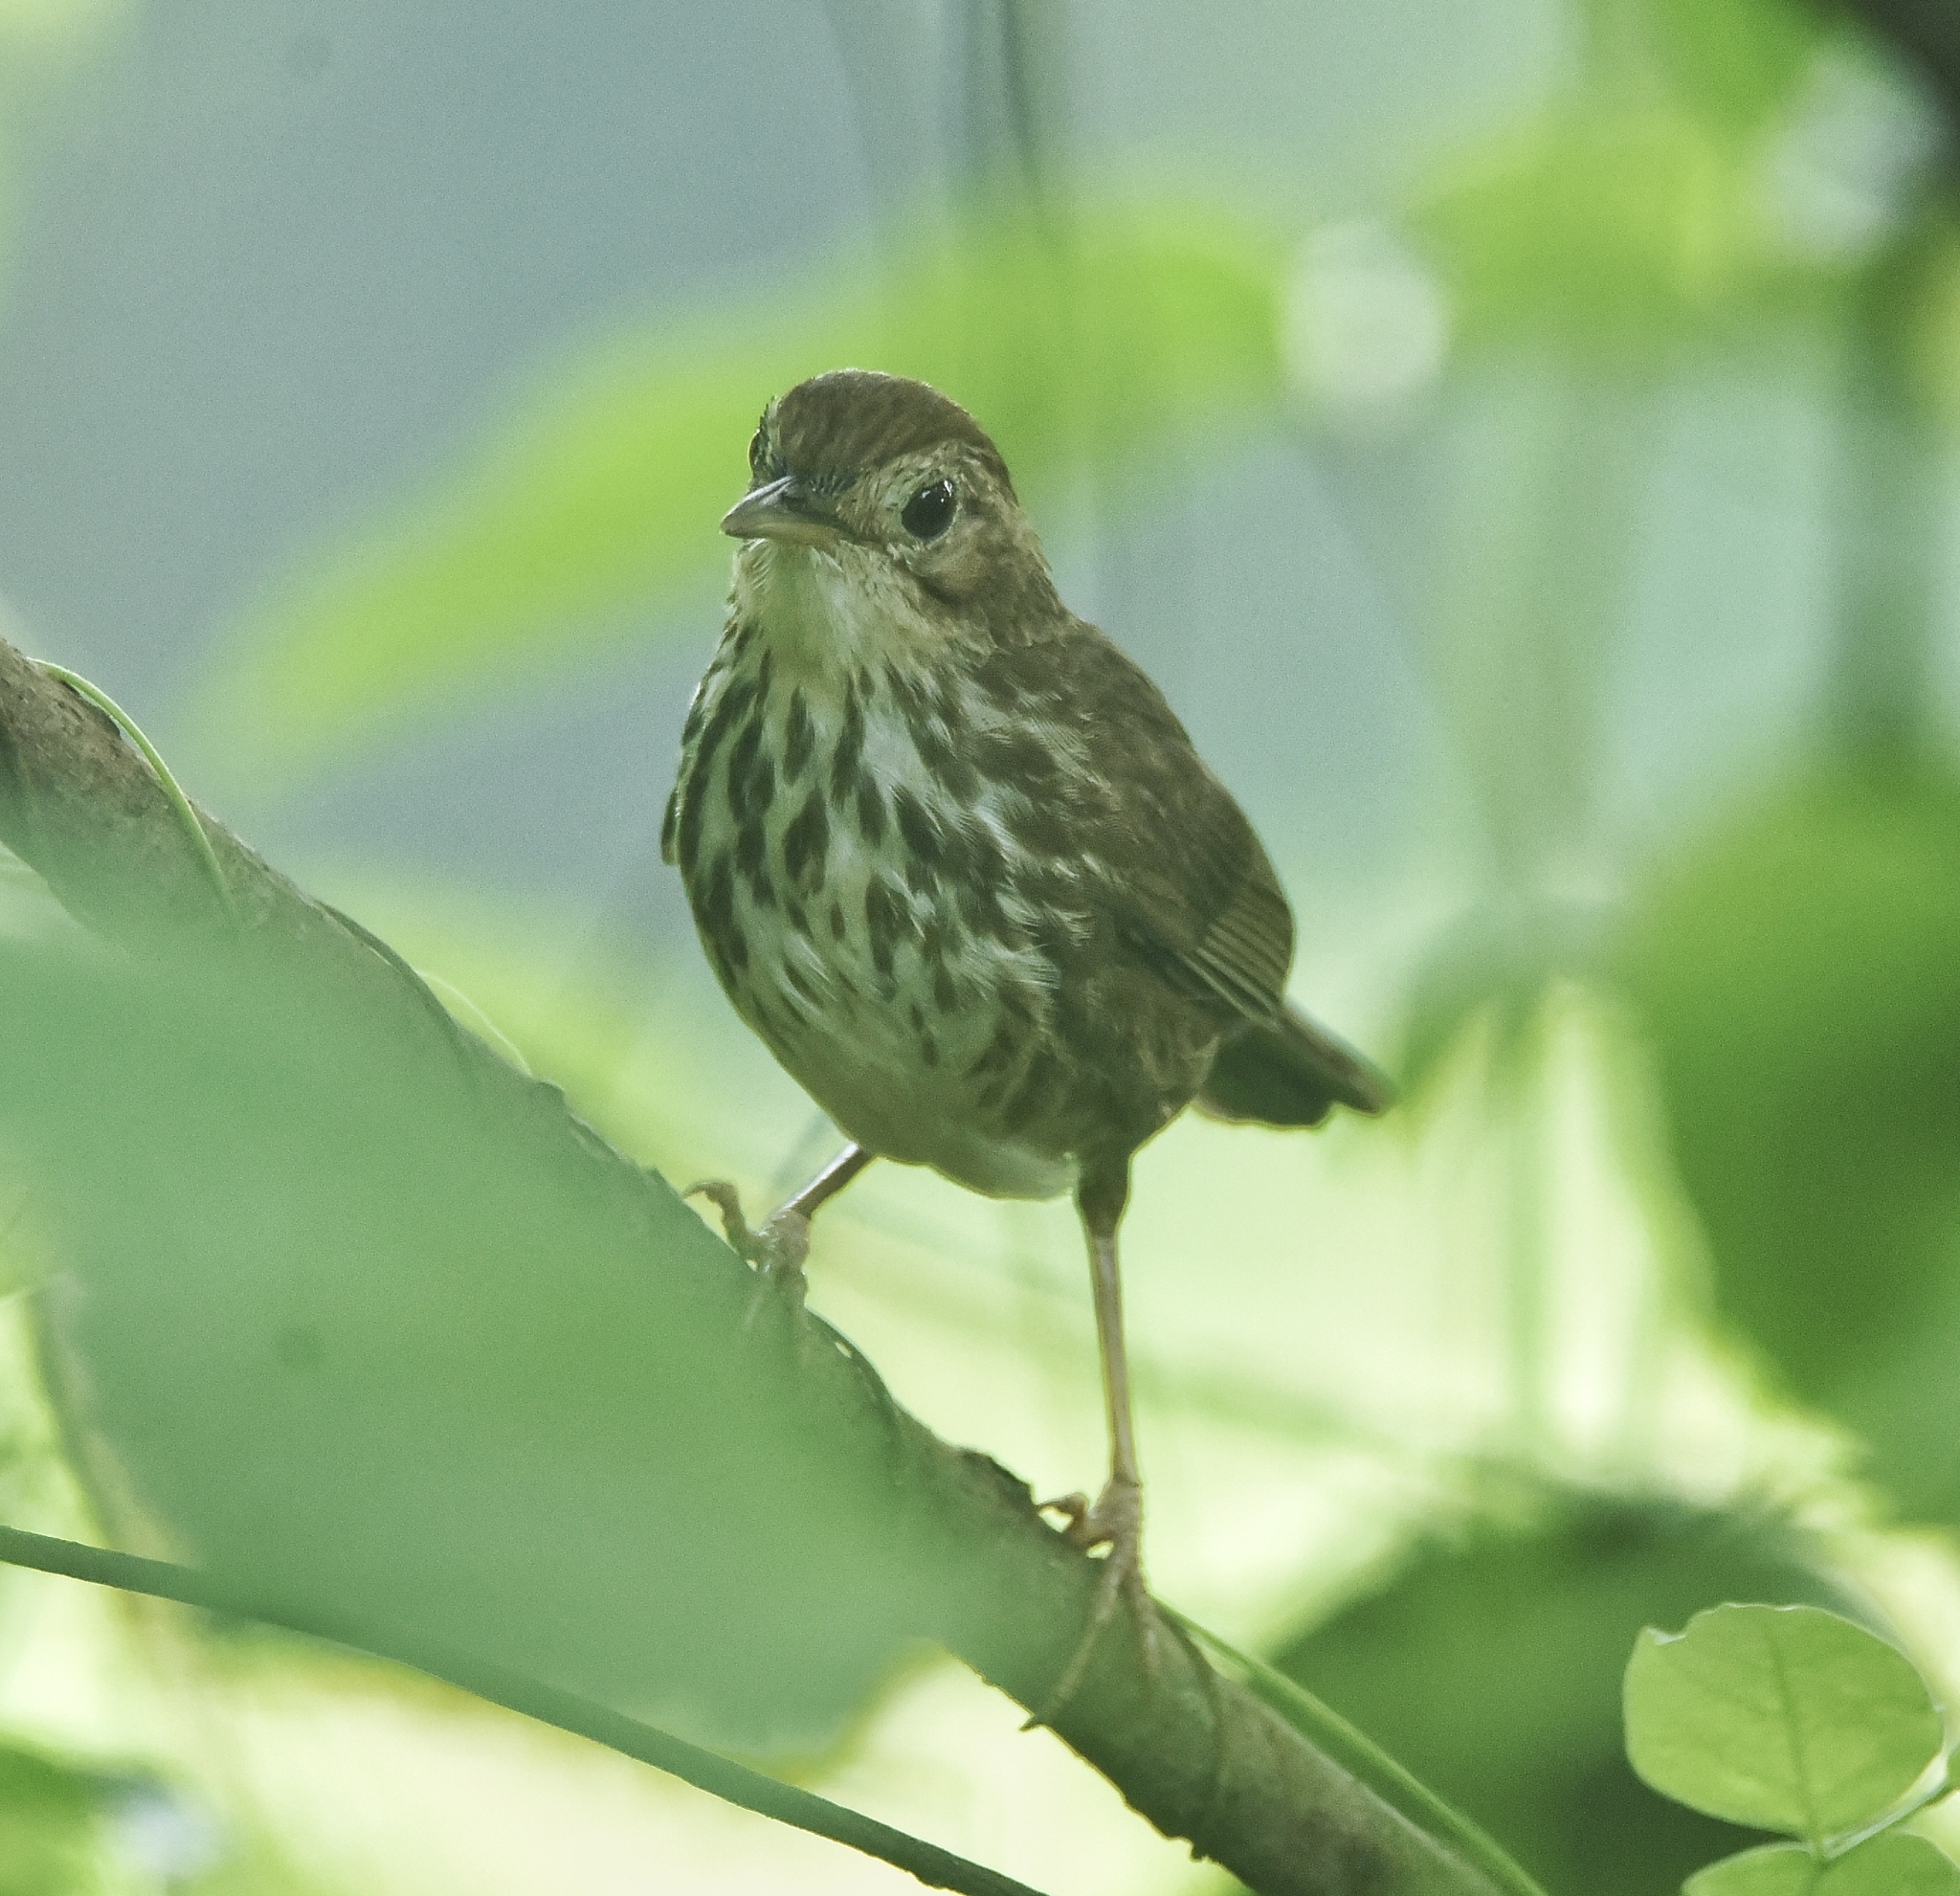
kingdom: Animalia
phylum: Chordata
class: Aves
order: Passeriformes
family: Pellorneidae
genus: Pellorneum
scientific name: Pellorneum ruficeps
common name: Puff-throated babbler
